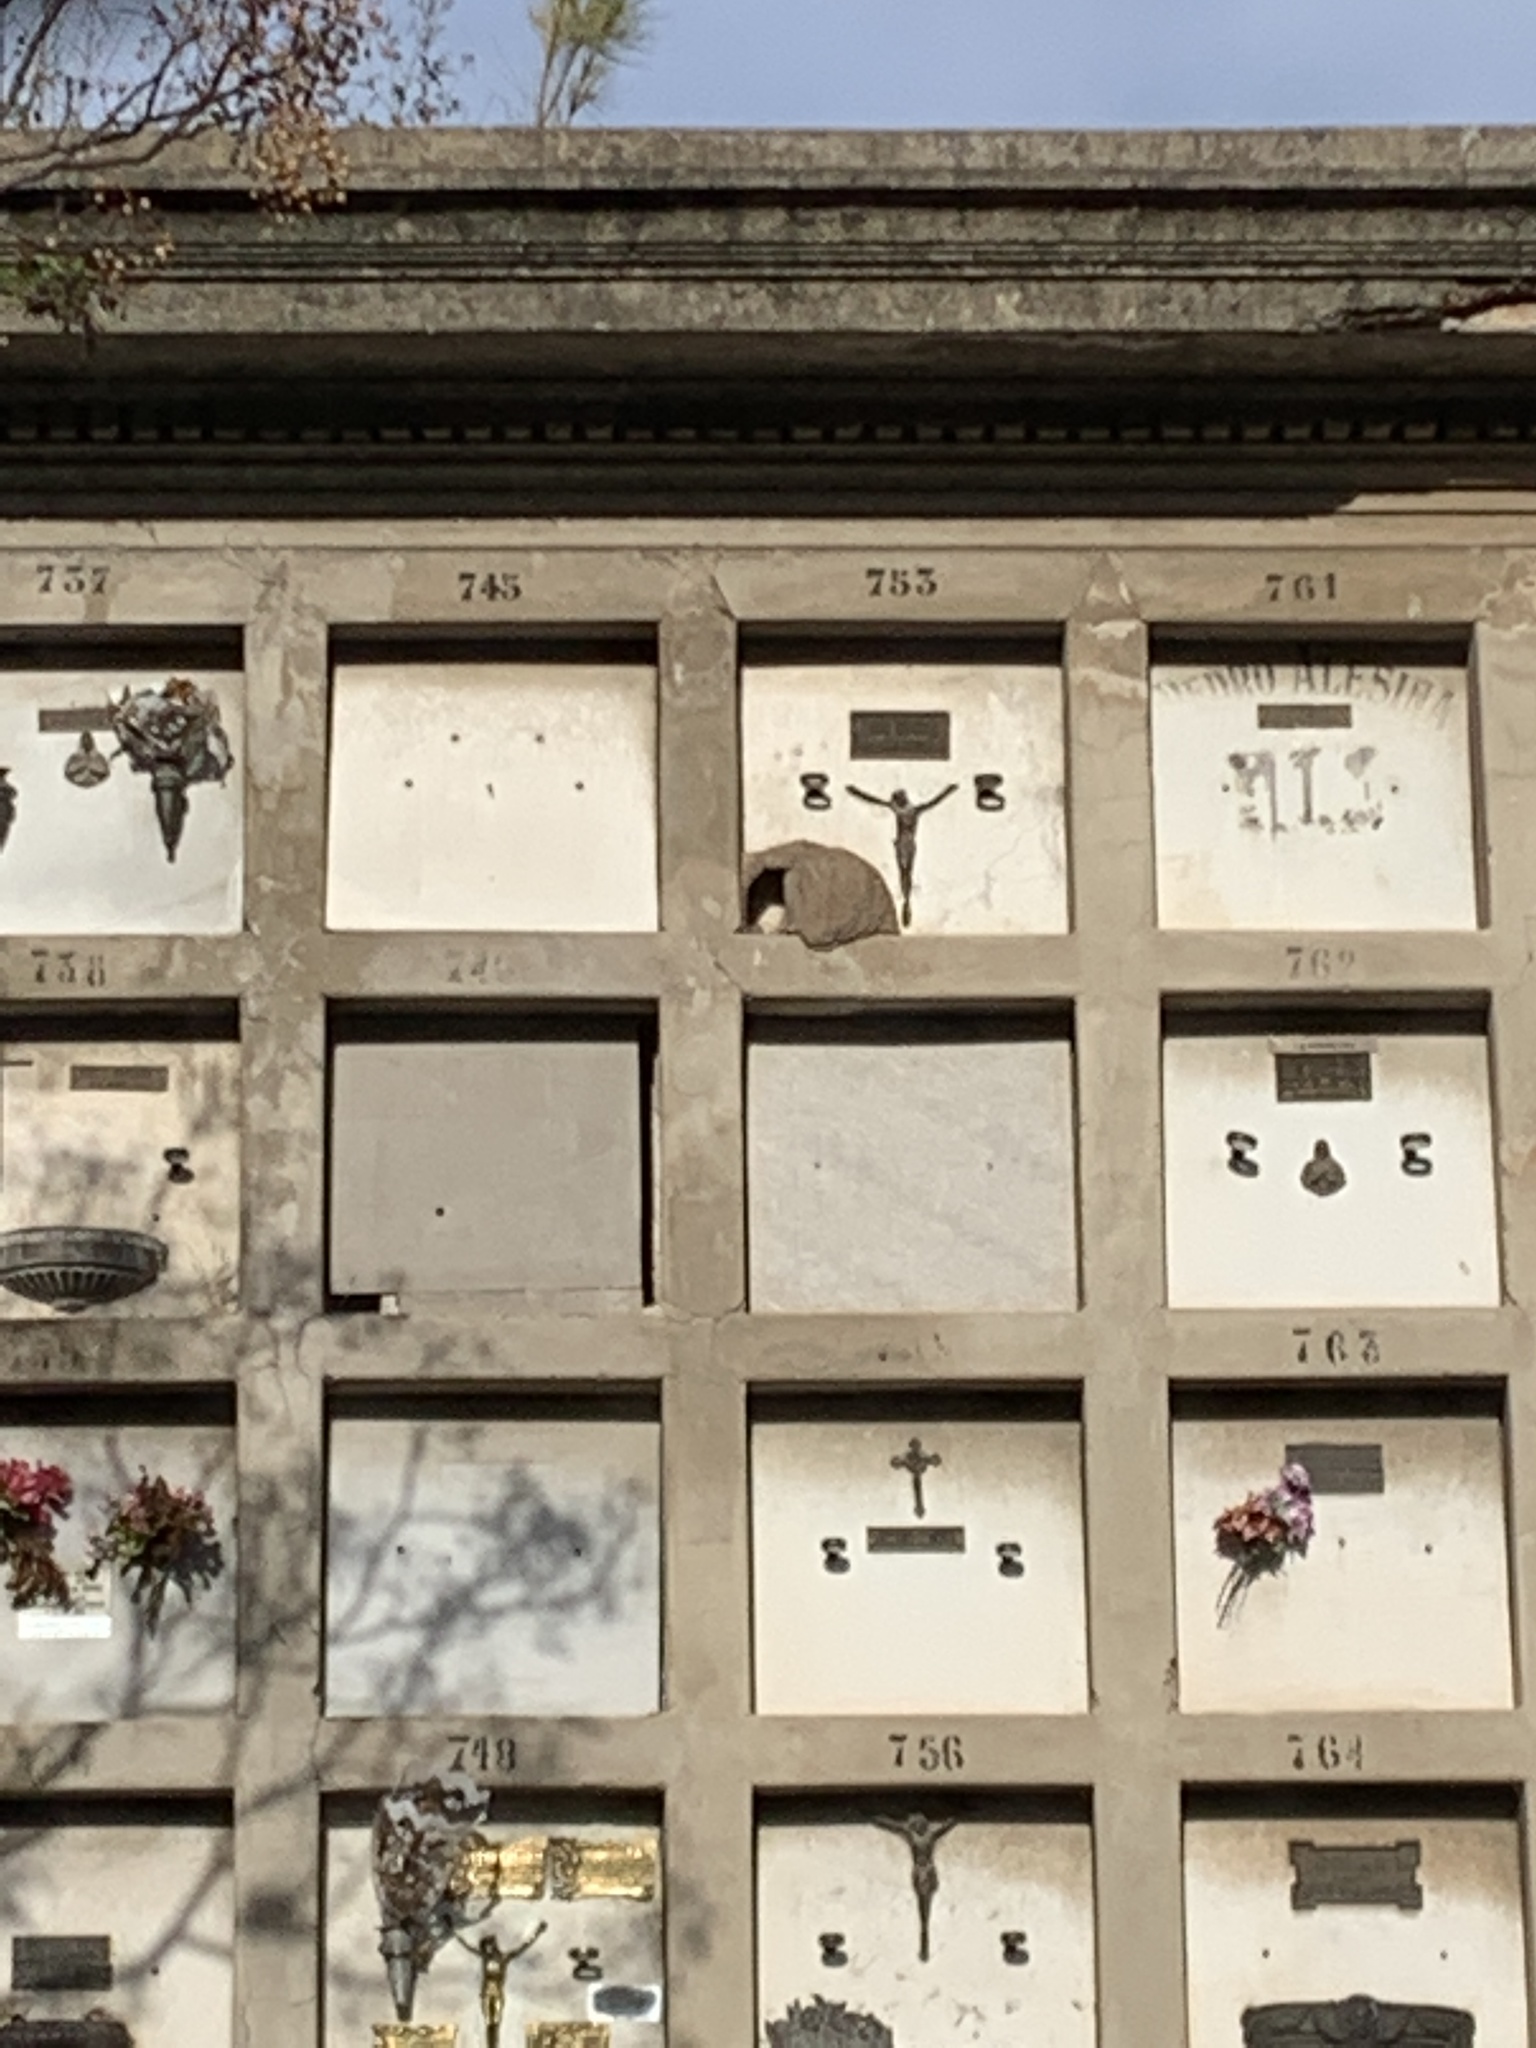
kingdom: Animalia
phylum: Chordata
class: Aves
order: Passeriformes
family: Furnariidae
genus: Furnarius
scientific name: Furnarius rufus
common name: Rufous hornero
